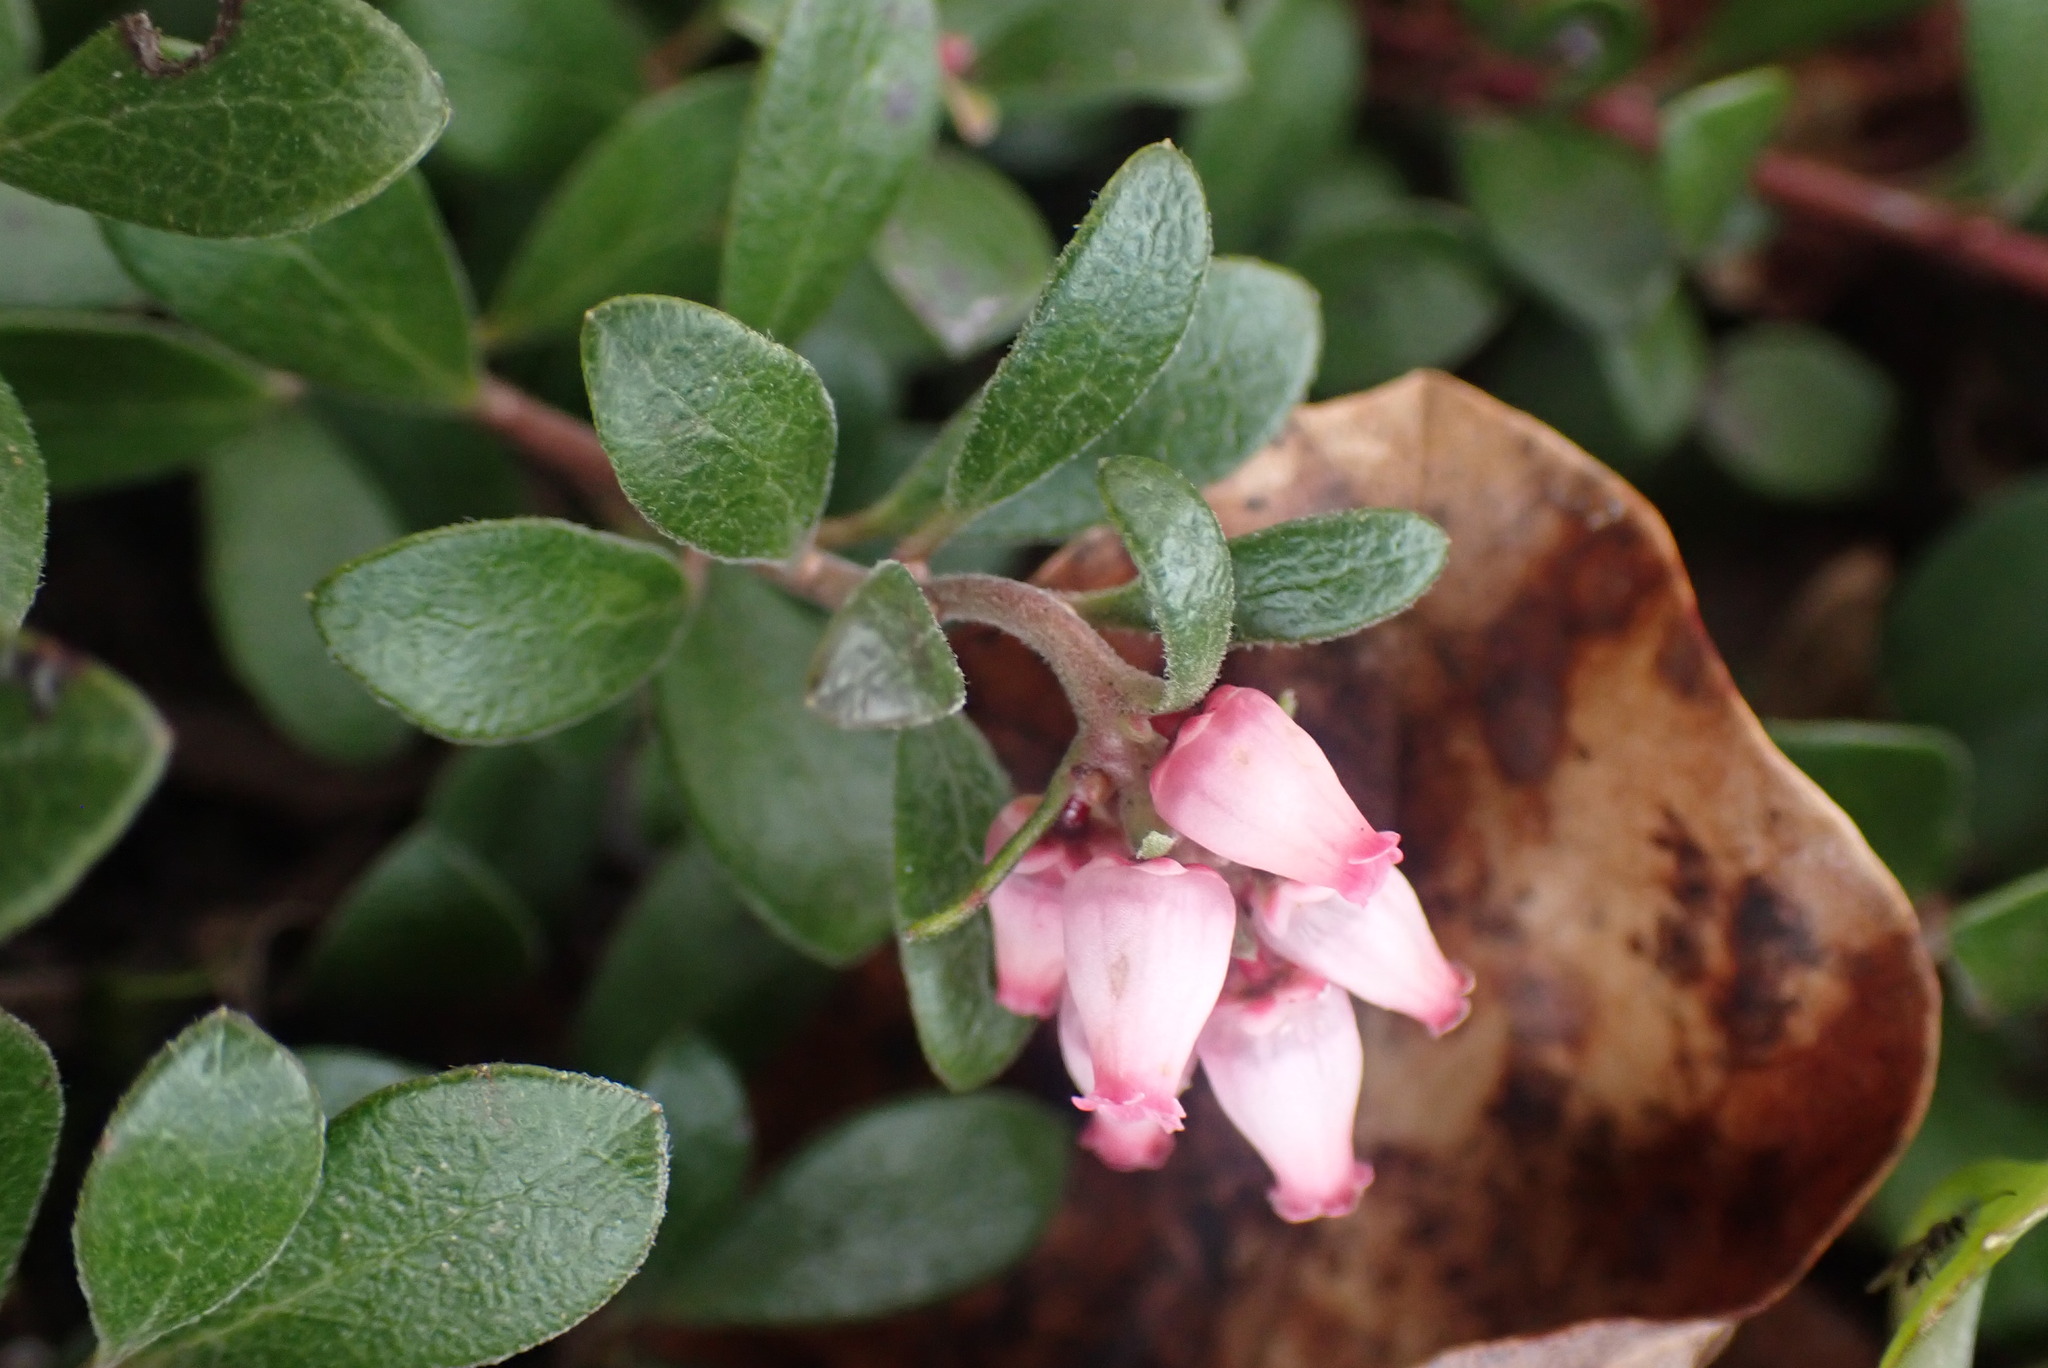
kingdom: Plantae
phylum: Tracheophyta
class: Magnoliopsida
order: Ericales
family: Ericaceae
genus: Arctostaphylos
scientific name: Arctostaphylos uva-ursi
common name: Bearberry
